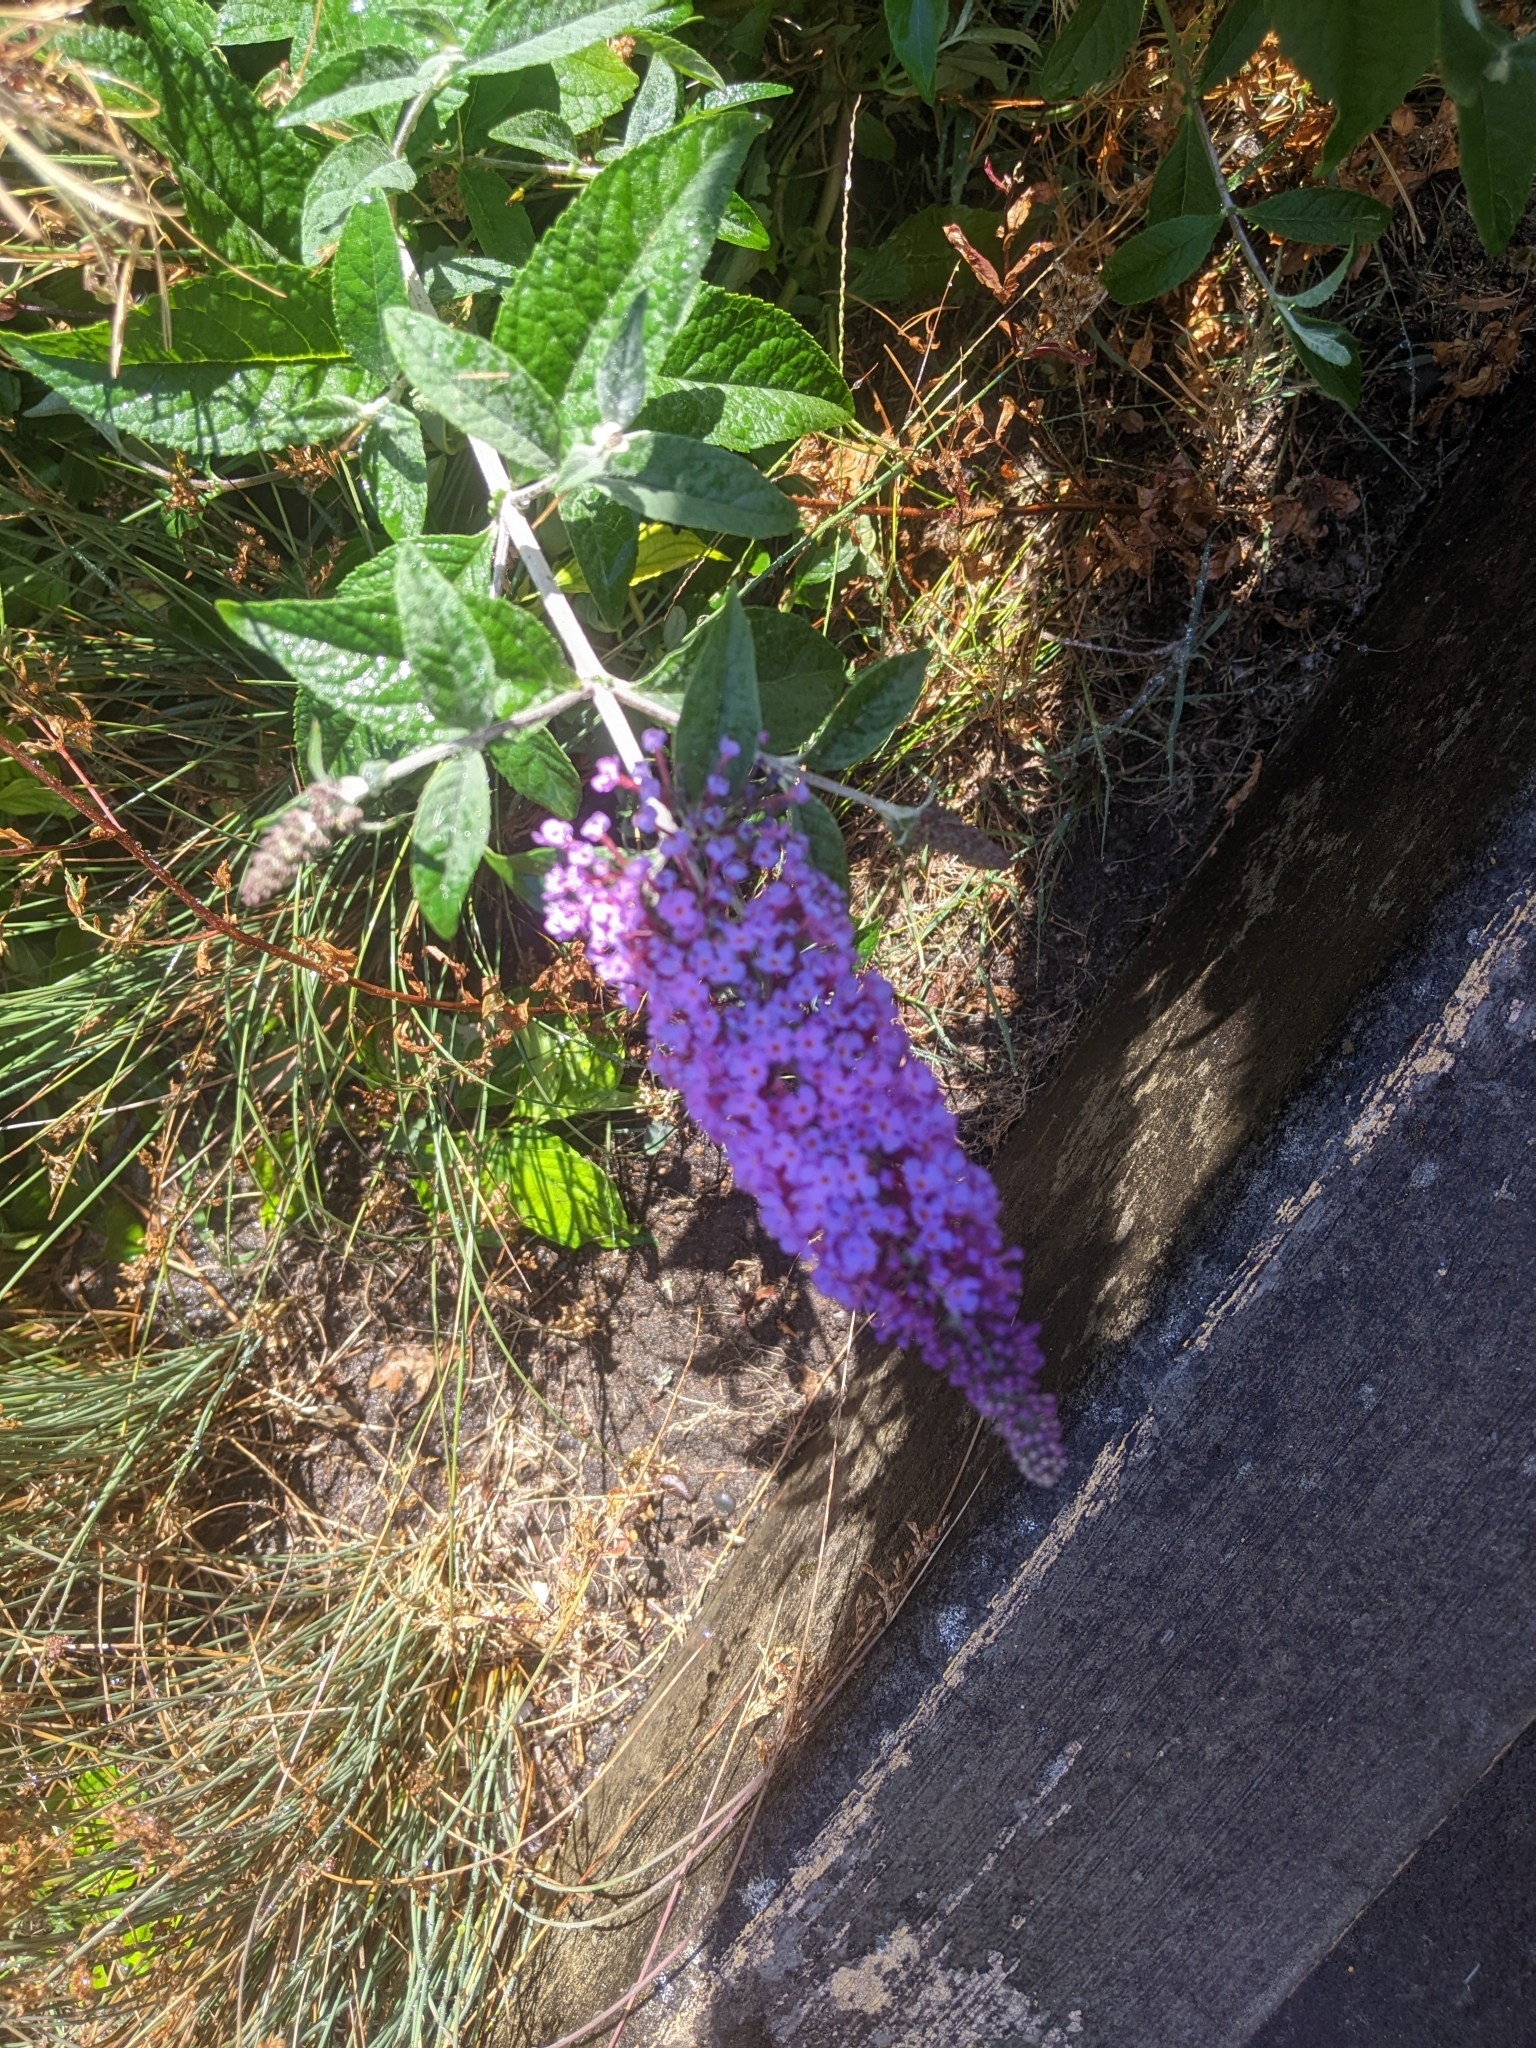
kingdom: Plantae
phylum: Tracheophyta
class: Magnoliopsida
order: Lamiales
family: Scrophulariaceae
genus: Buddleja
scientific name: Buddleja davidii
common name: Butterfly-bush
